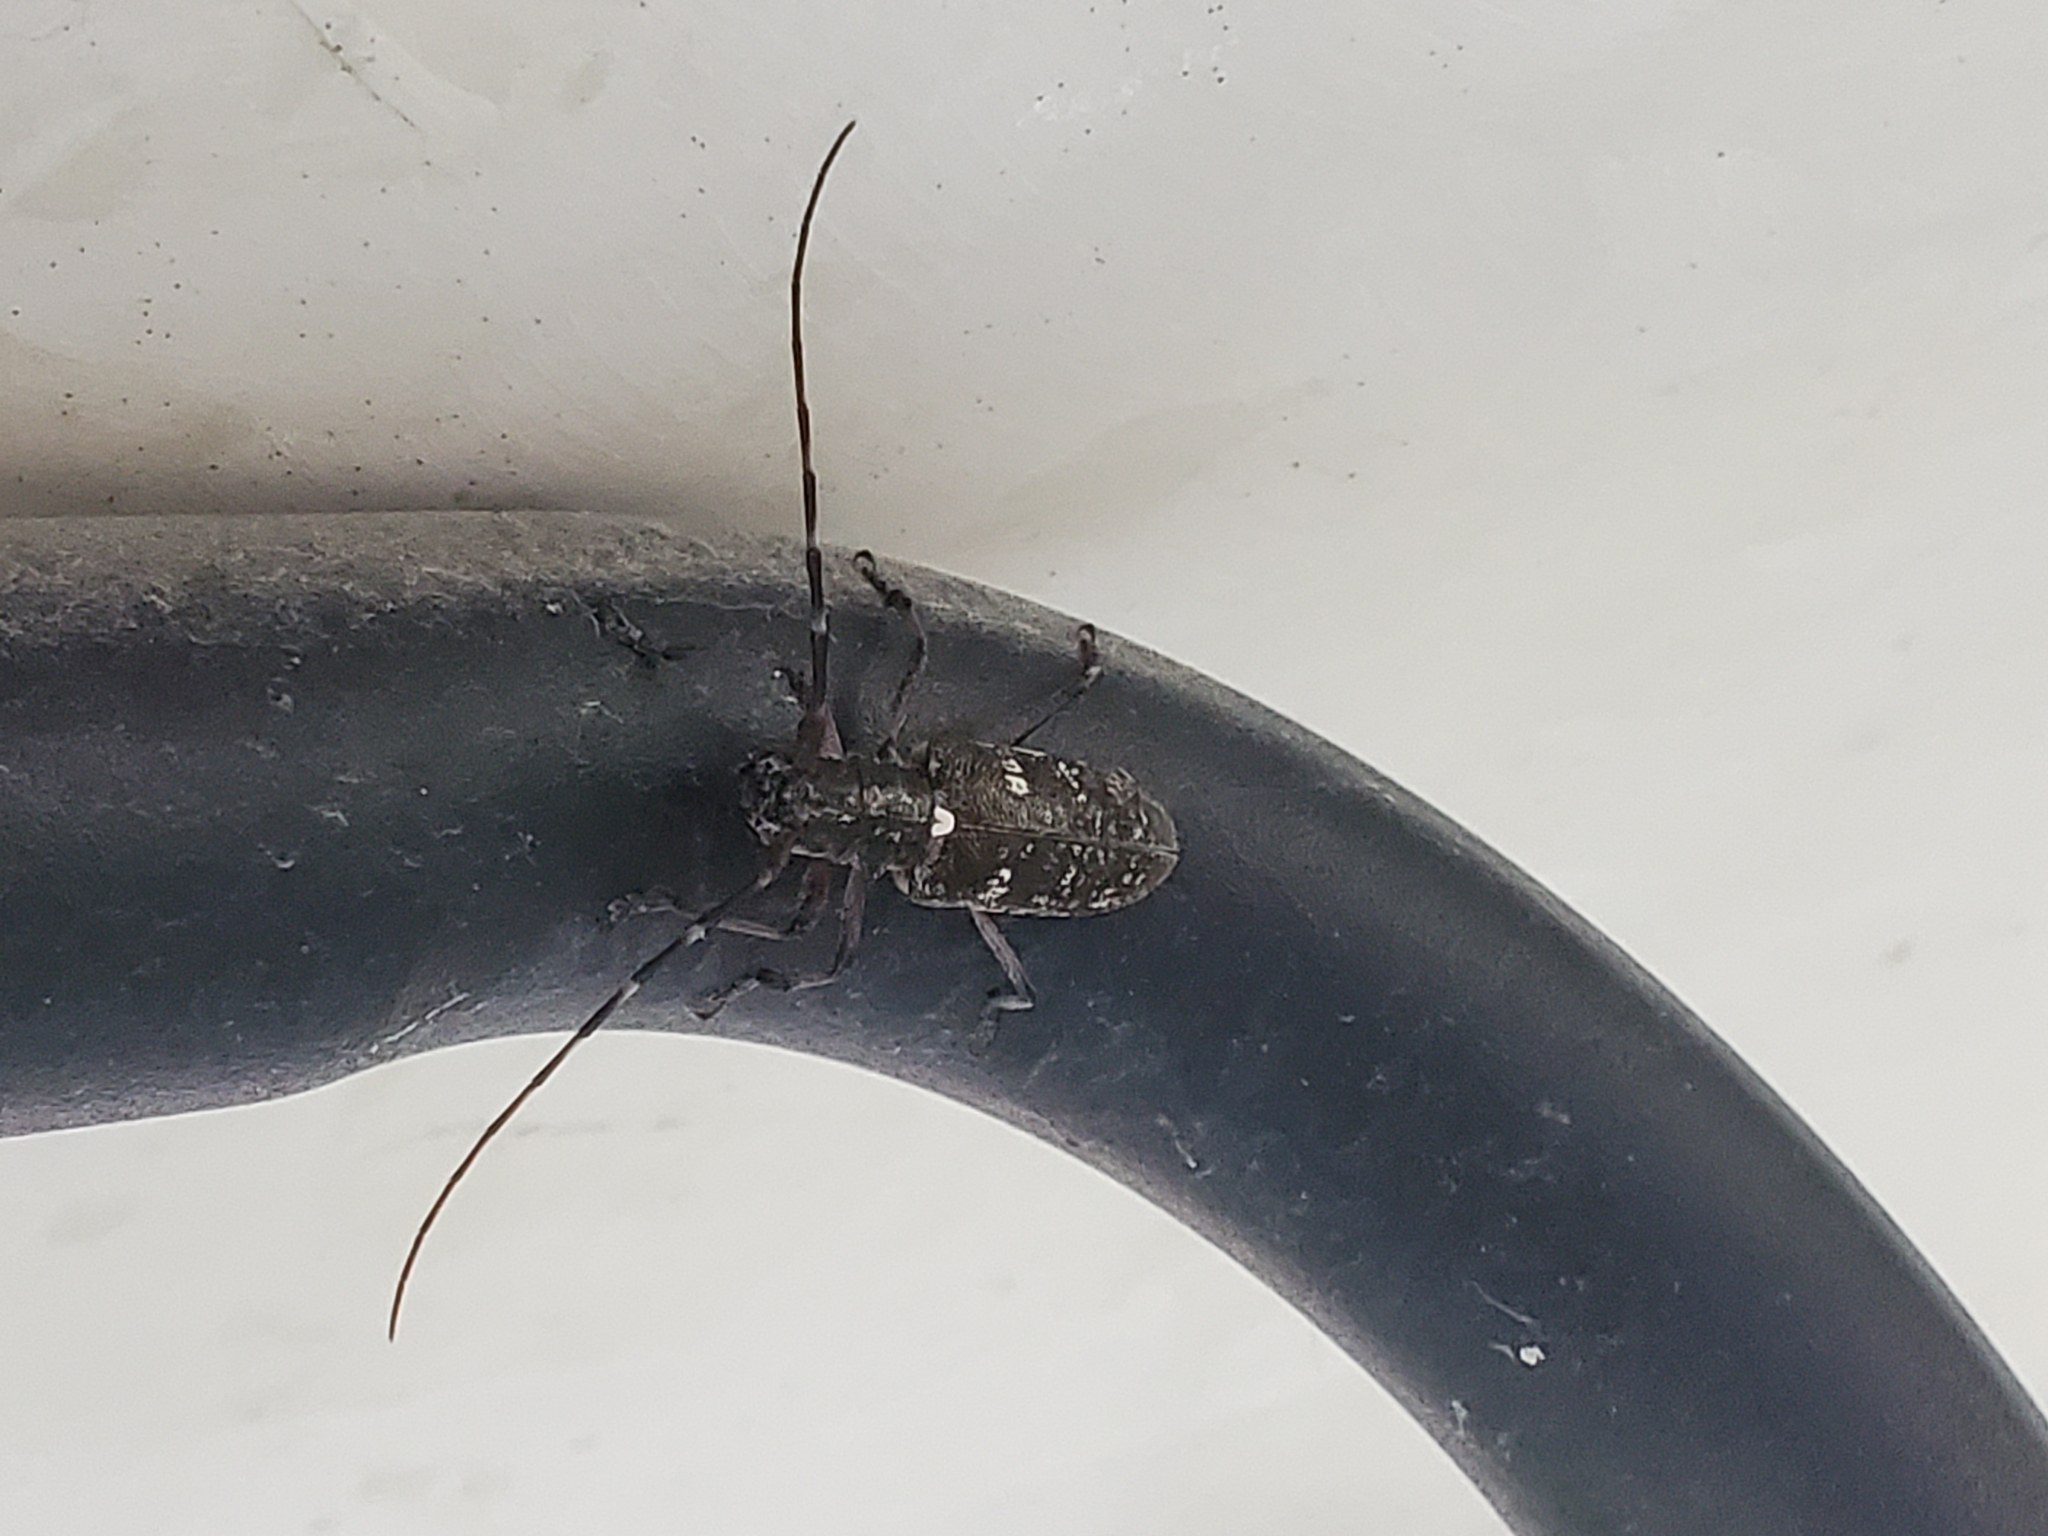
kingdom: Animalia
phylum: Arthropoda
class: Insecta
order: Coleoptera
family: Cerambycidae
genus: Monochamus
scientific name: Monochamus scutellatus
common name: White-spotted sawyer beetle
